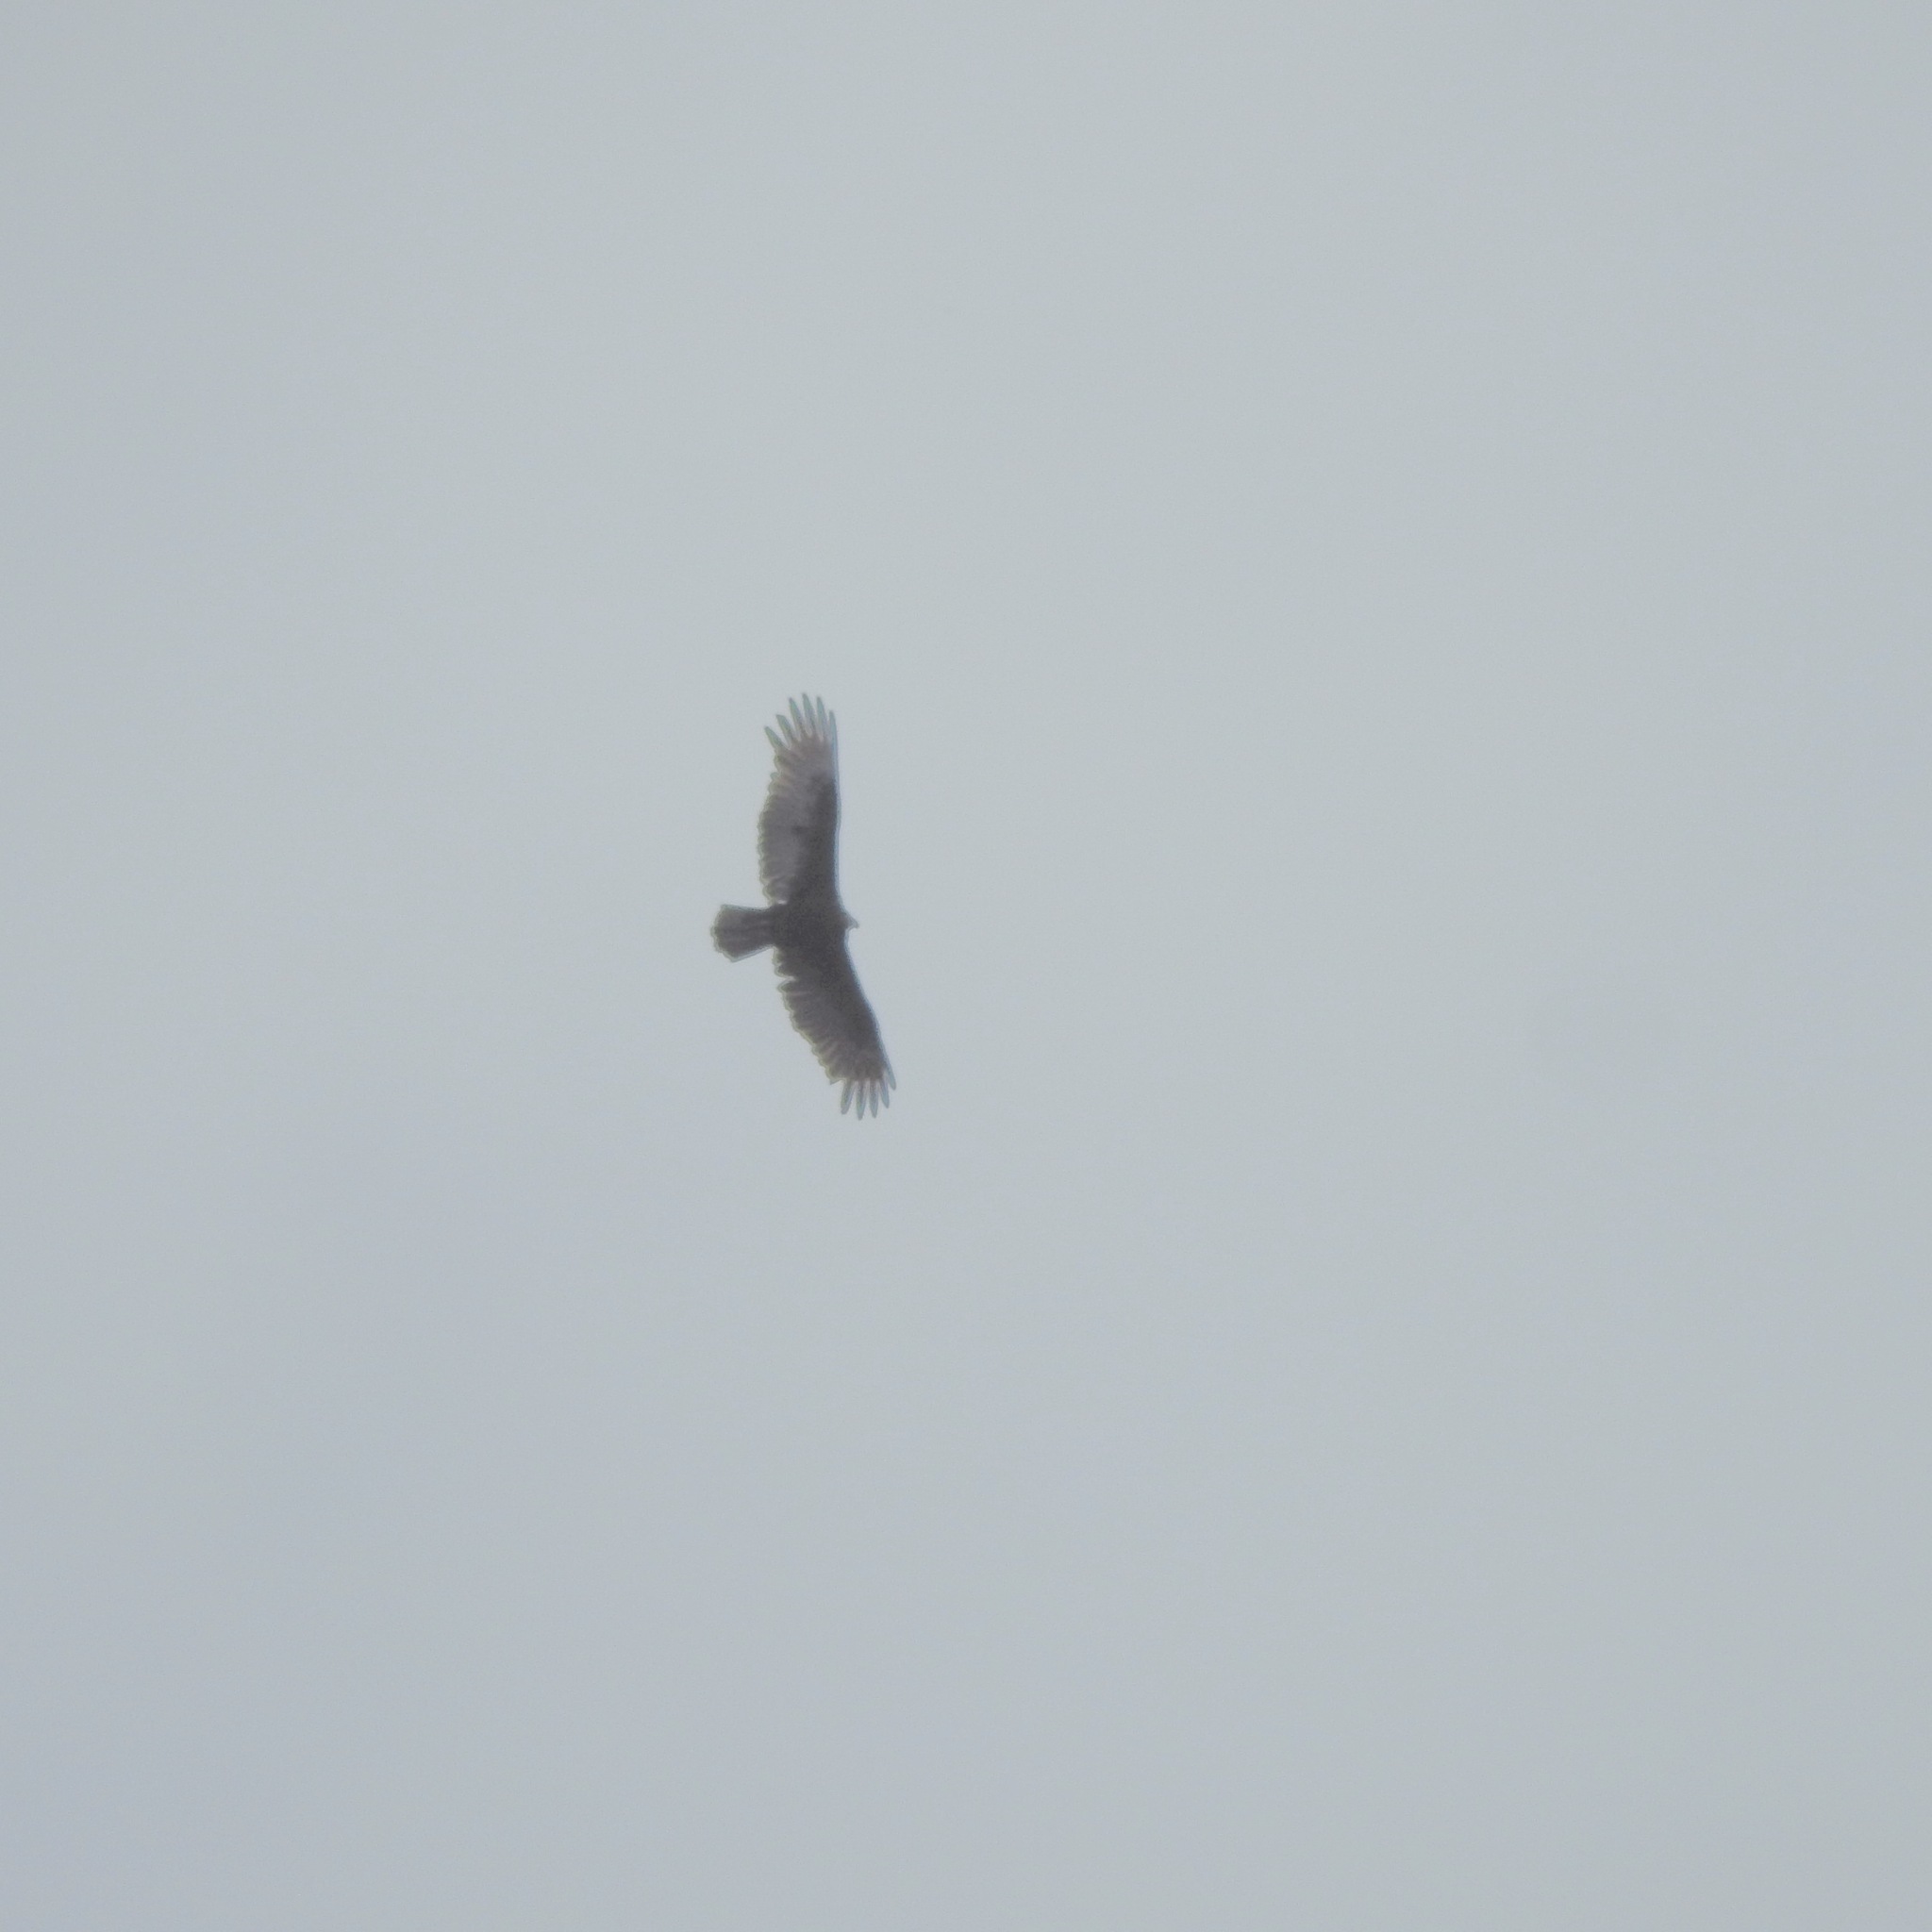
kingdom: Animalia
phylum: Chordata
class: Aves
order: Accipitriformes
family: Cathartidae
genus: Cathartes
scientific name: Cathartes aura
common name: Turkey vulture
